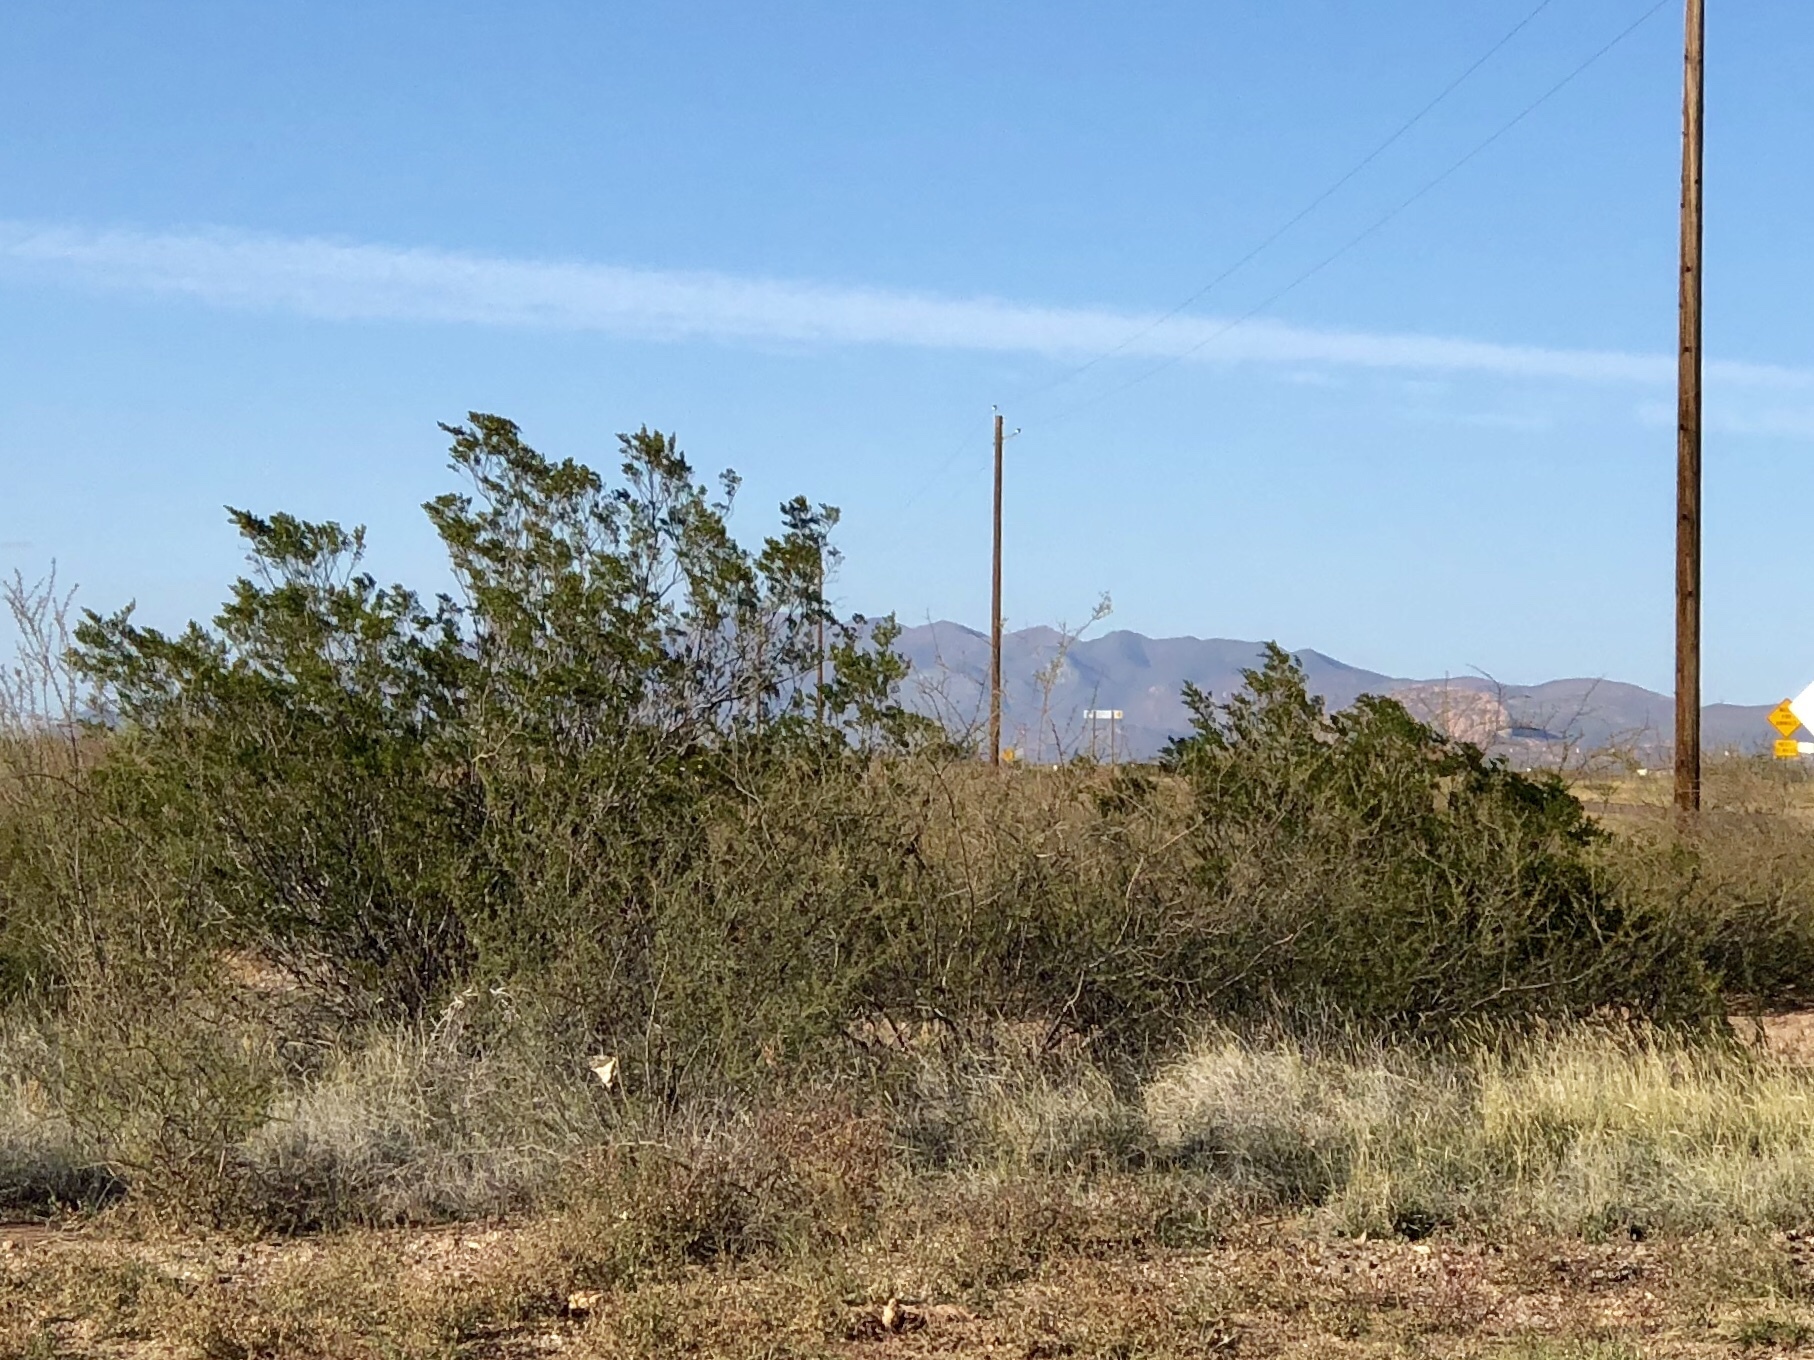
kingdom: Plantae
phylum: Tracheophyta
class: Magnoliopsida
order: Zygophyllales
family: Zygophyllaceae
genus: Larrea
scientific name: Larrea tridentata
